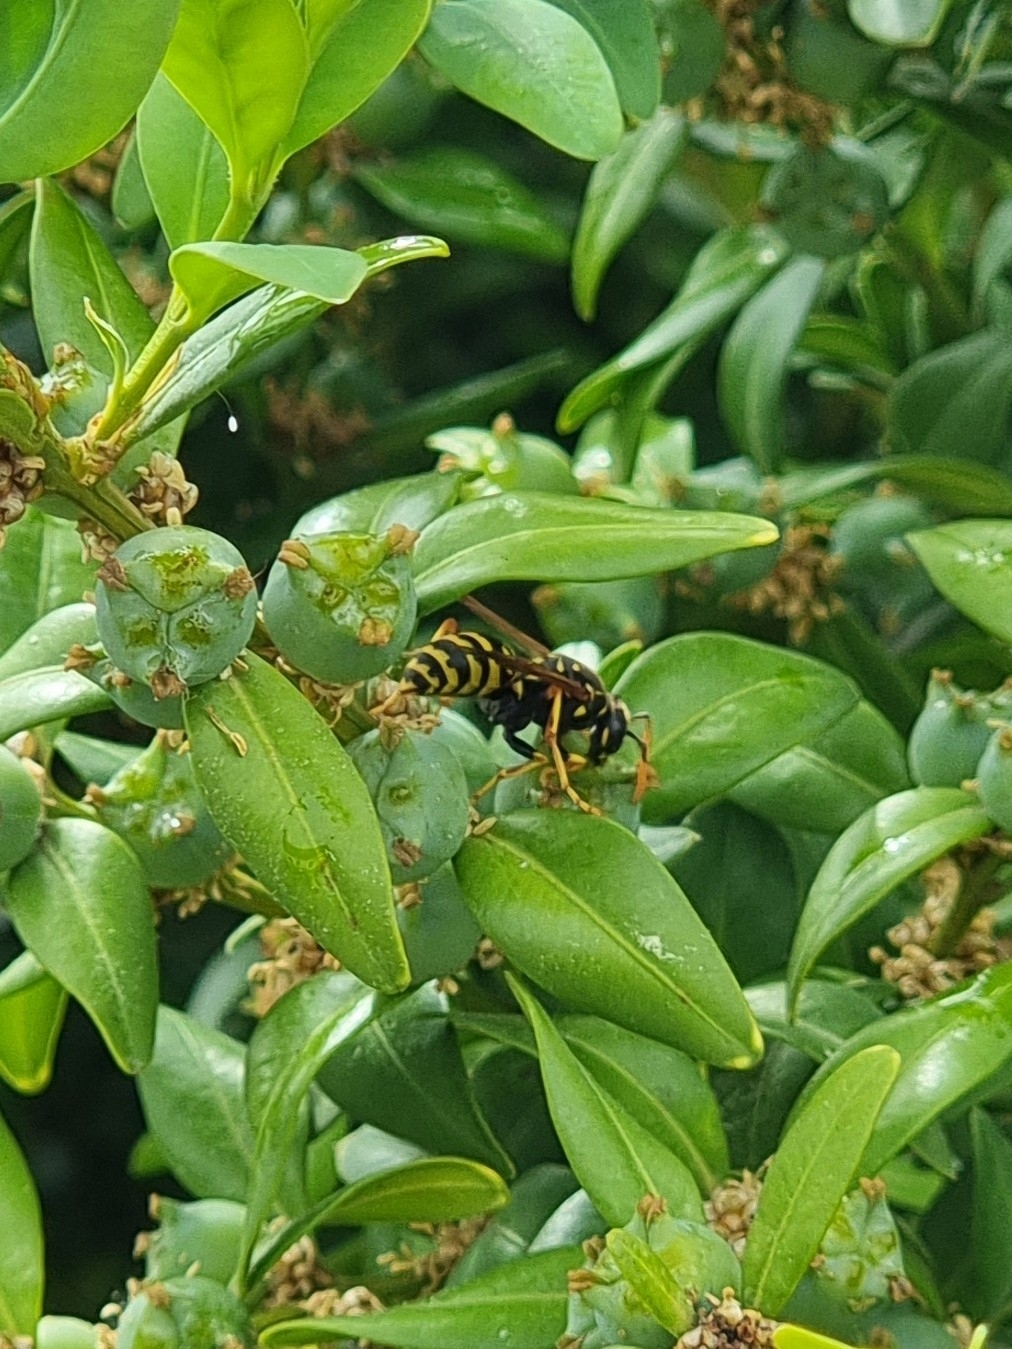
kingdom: Animalia
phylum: Arthropoda
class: Insecta
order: Hymenoptera
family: Eumenidae
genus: Polistes
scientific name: Polistes dominula
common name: Paper wasp
